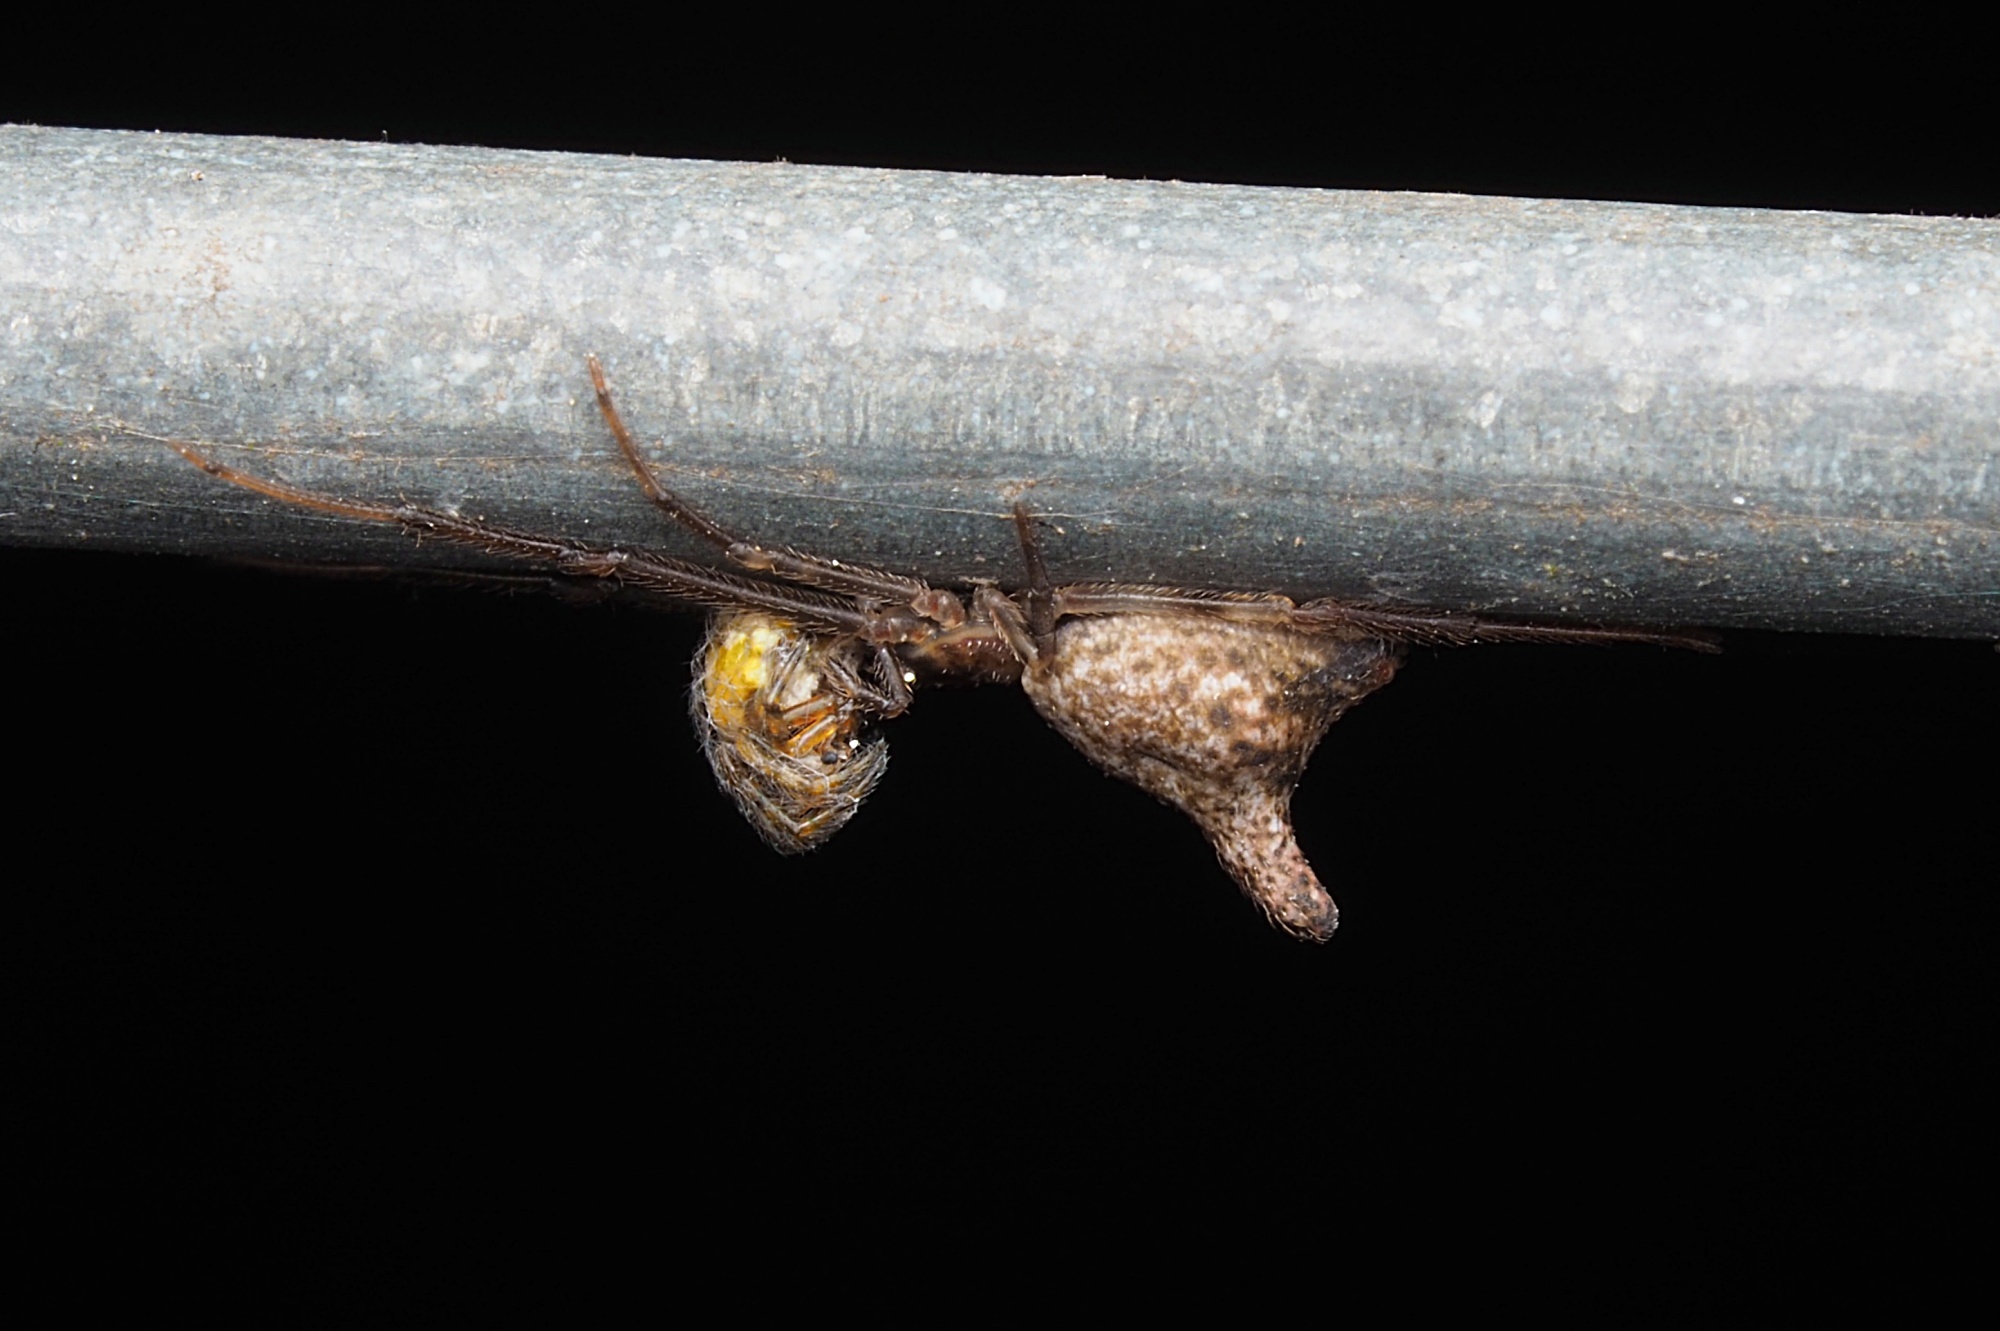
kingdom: Animalia
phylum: Arthropoda
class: Arachnida
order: Araneae
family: Theridiidae
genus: Moneta
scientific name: Moneta conifera
